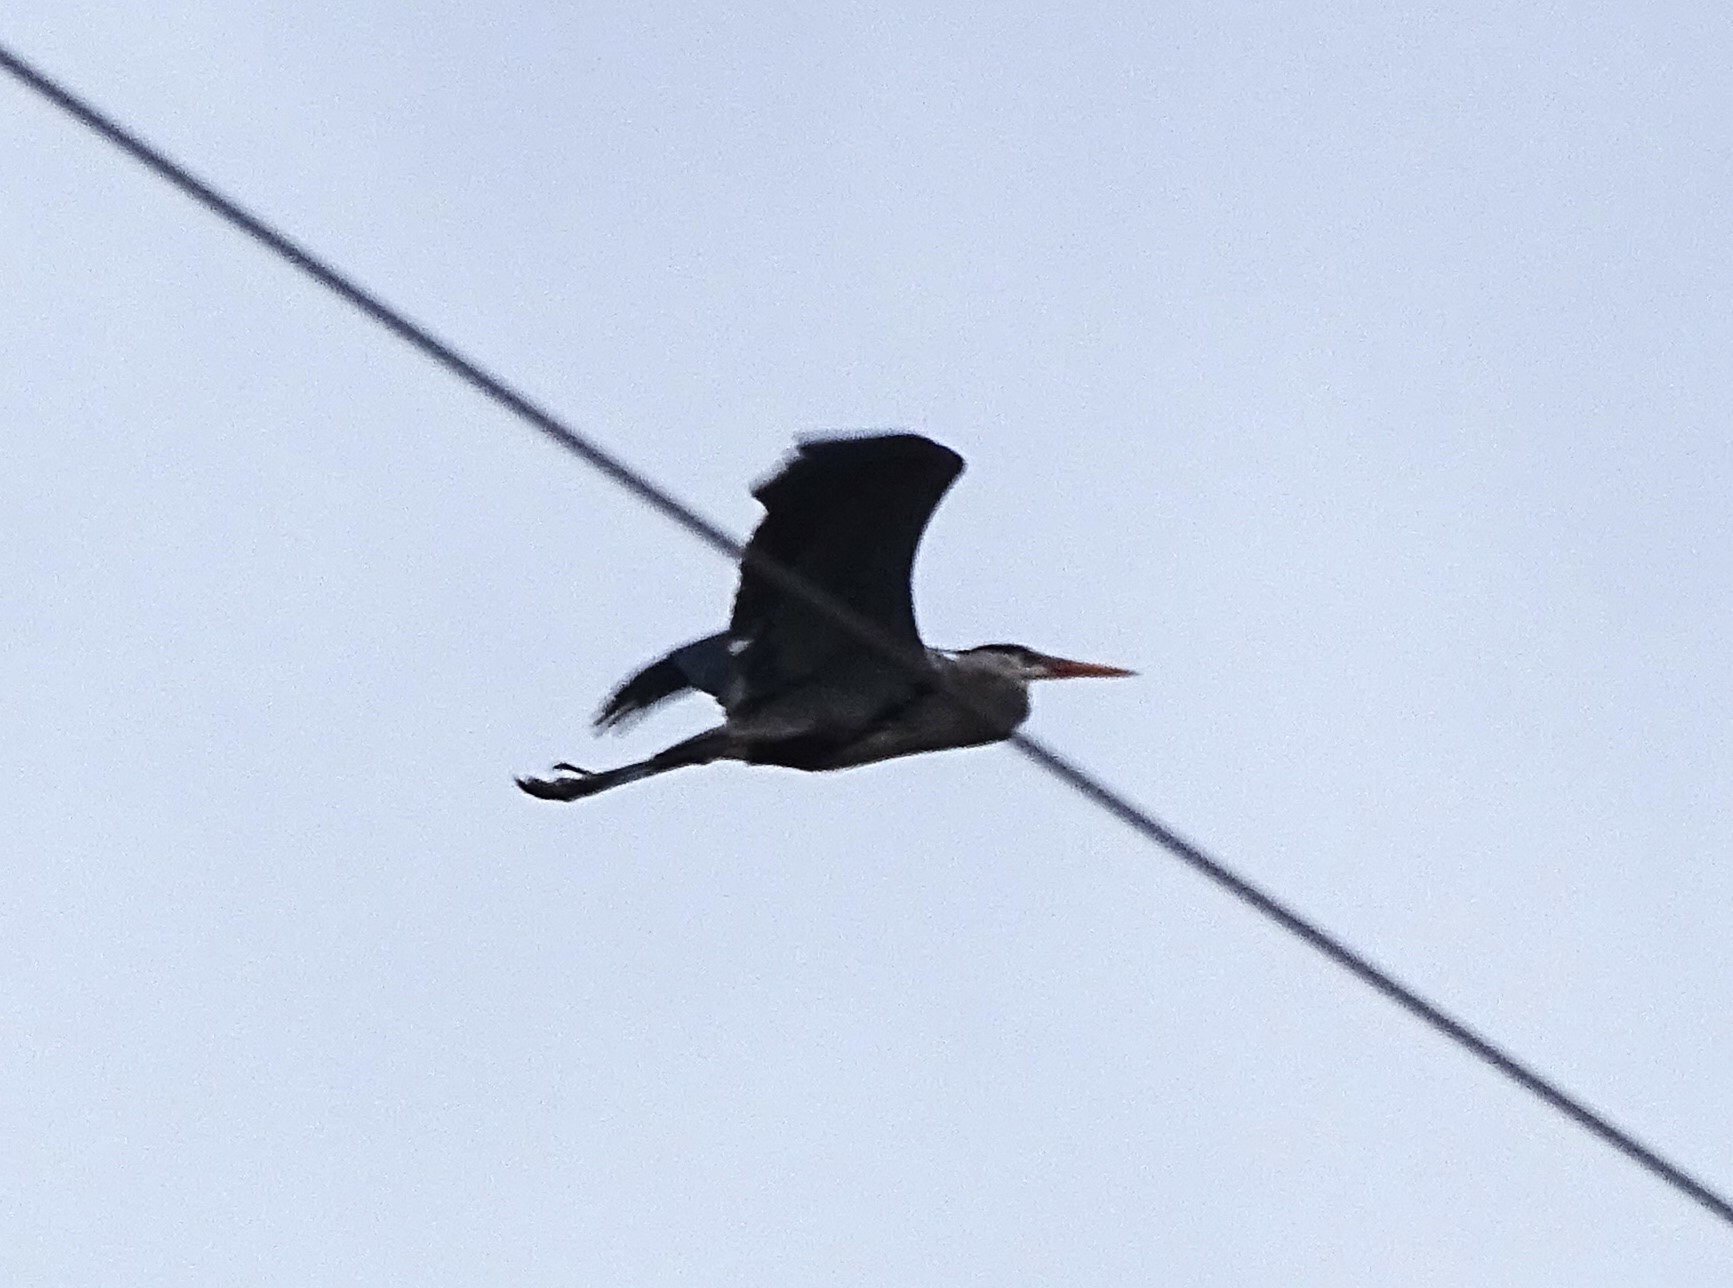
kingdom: Animalia
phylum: Chordata
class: Aves
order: Pelecaniformes
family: Ardeidae
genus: Ardea
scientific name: Ardea herodias
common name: Great blue heron
